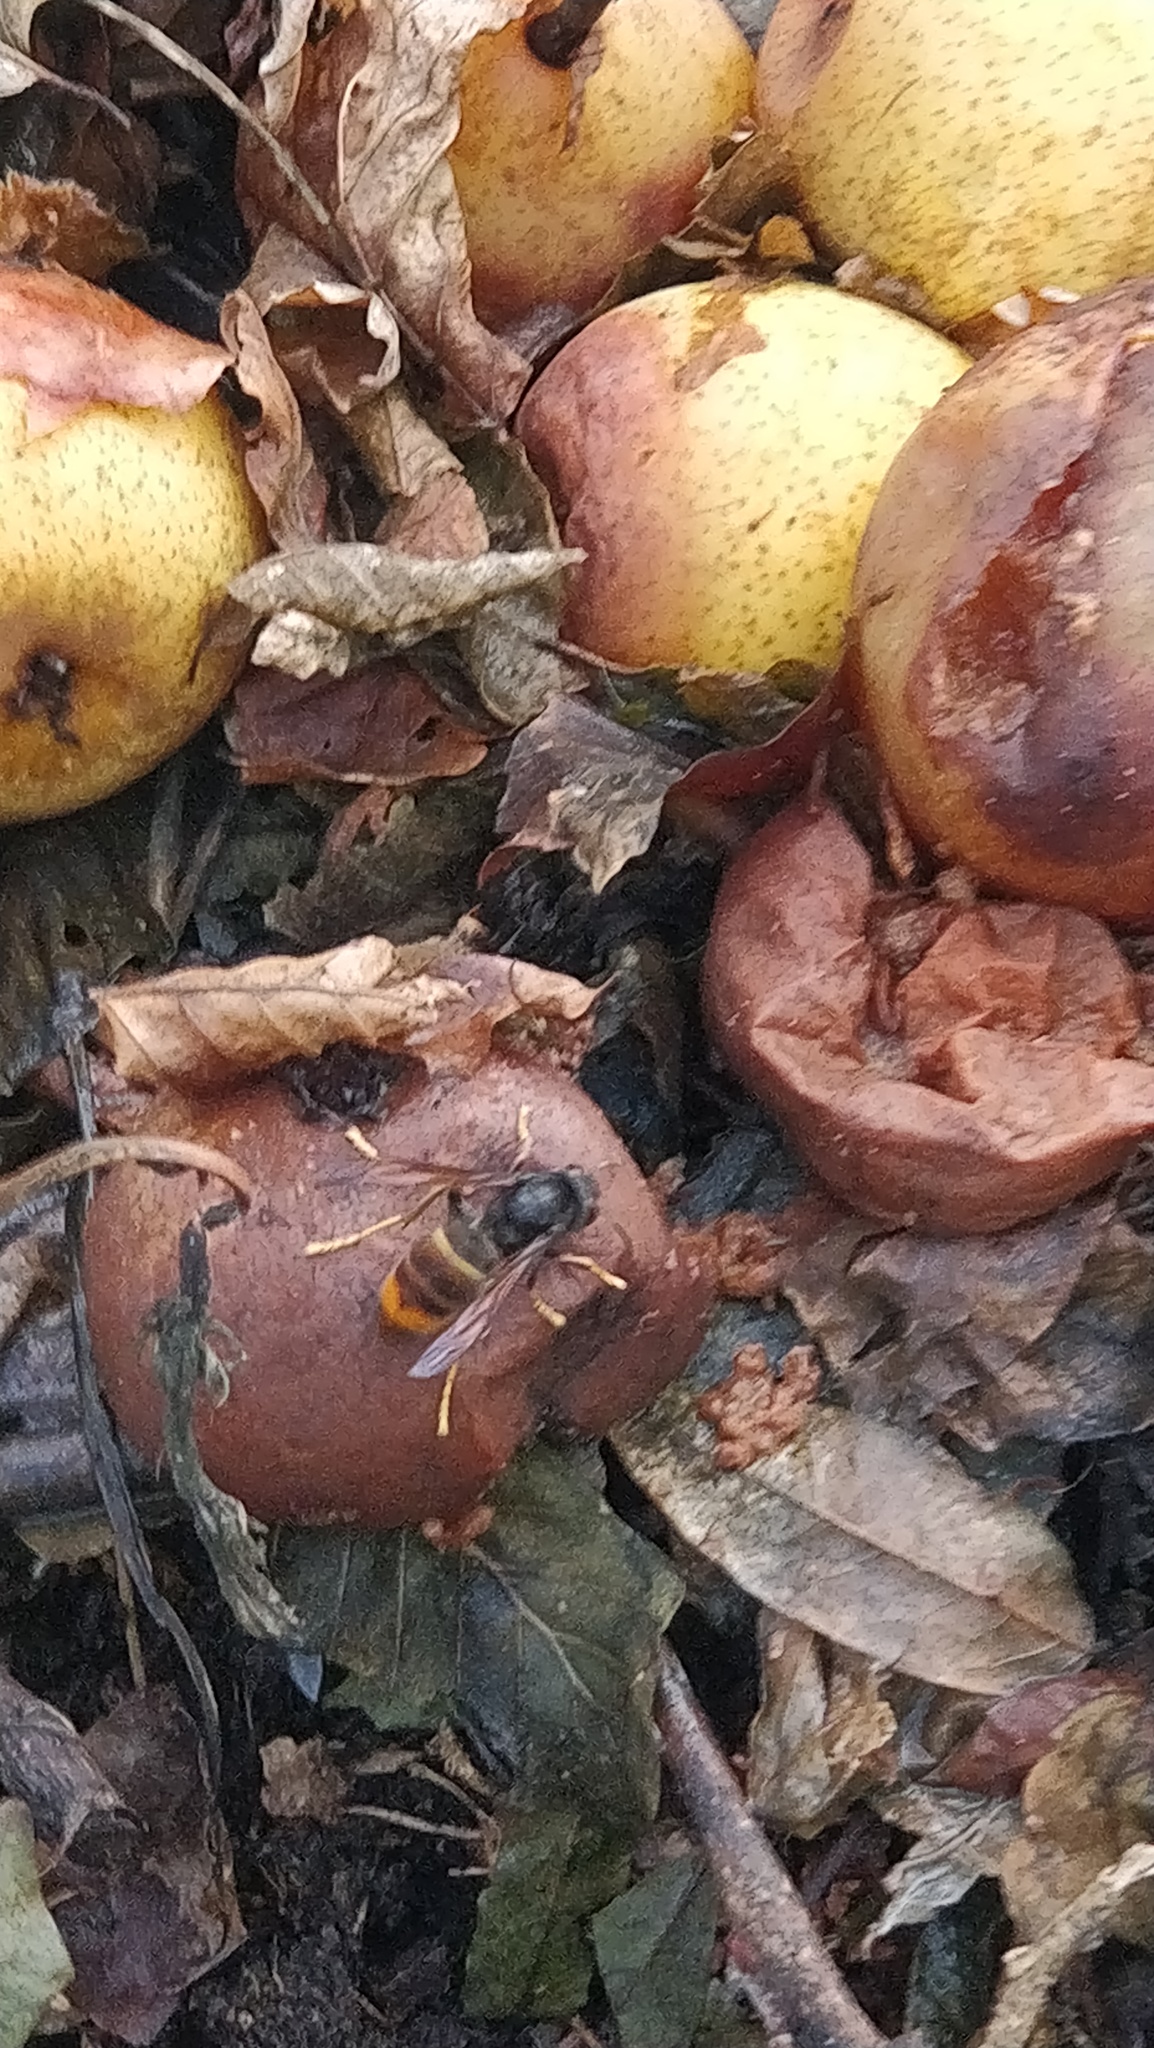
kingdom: Animalia
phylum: Arthropoda
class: Insecta
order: Hymenoptera
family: Vespidae
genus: Vespa
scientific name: Vespa velutina
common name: Asian hornet
